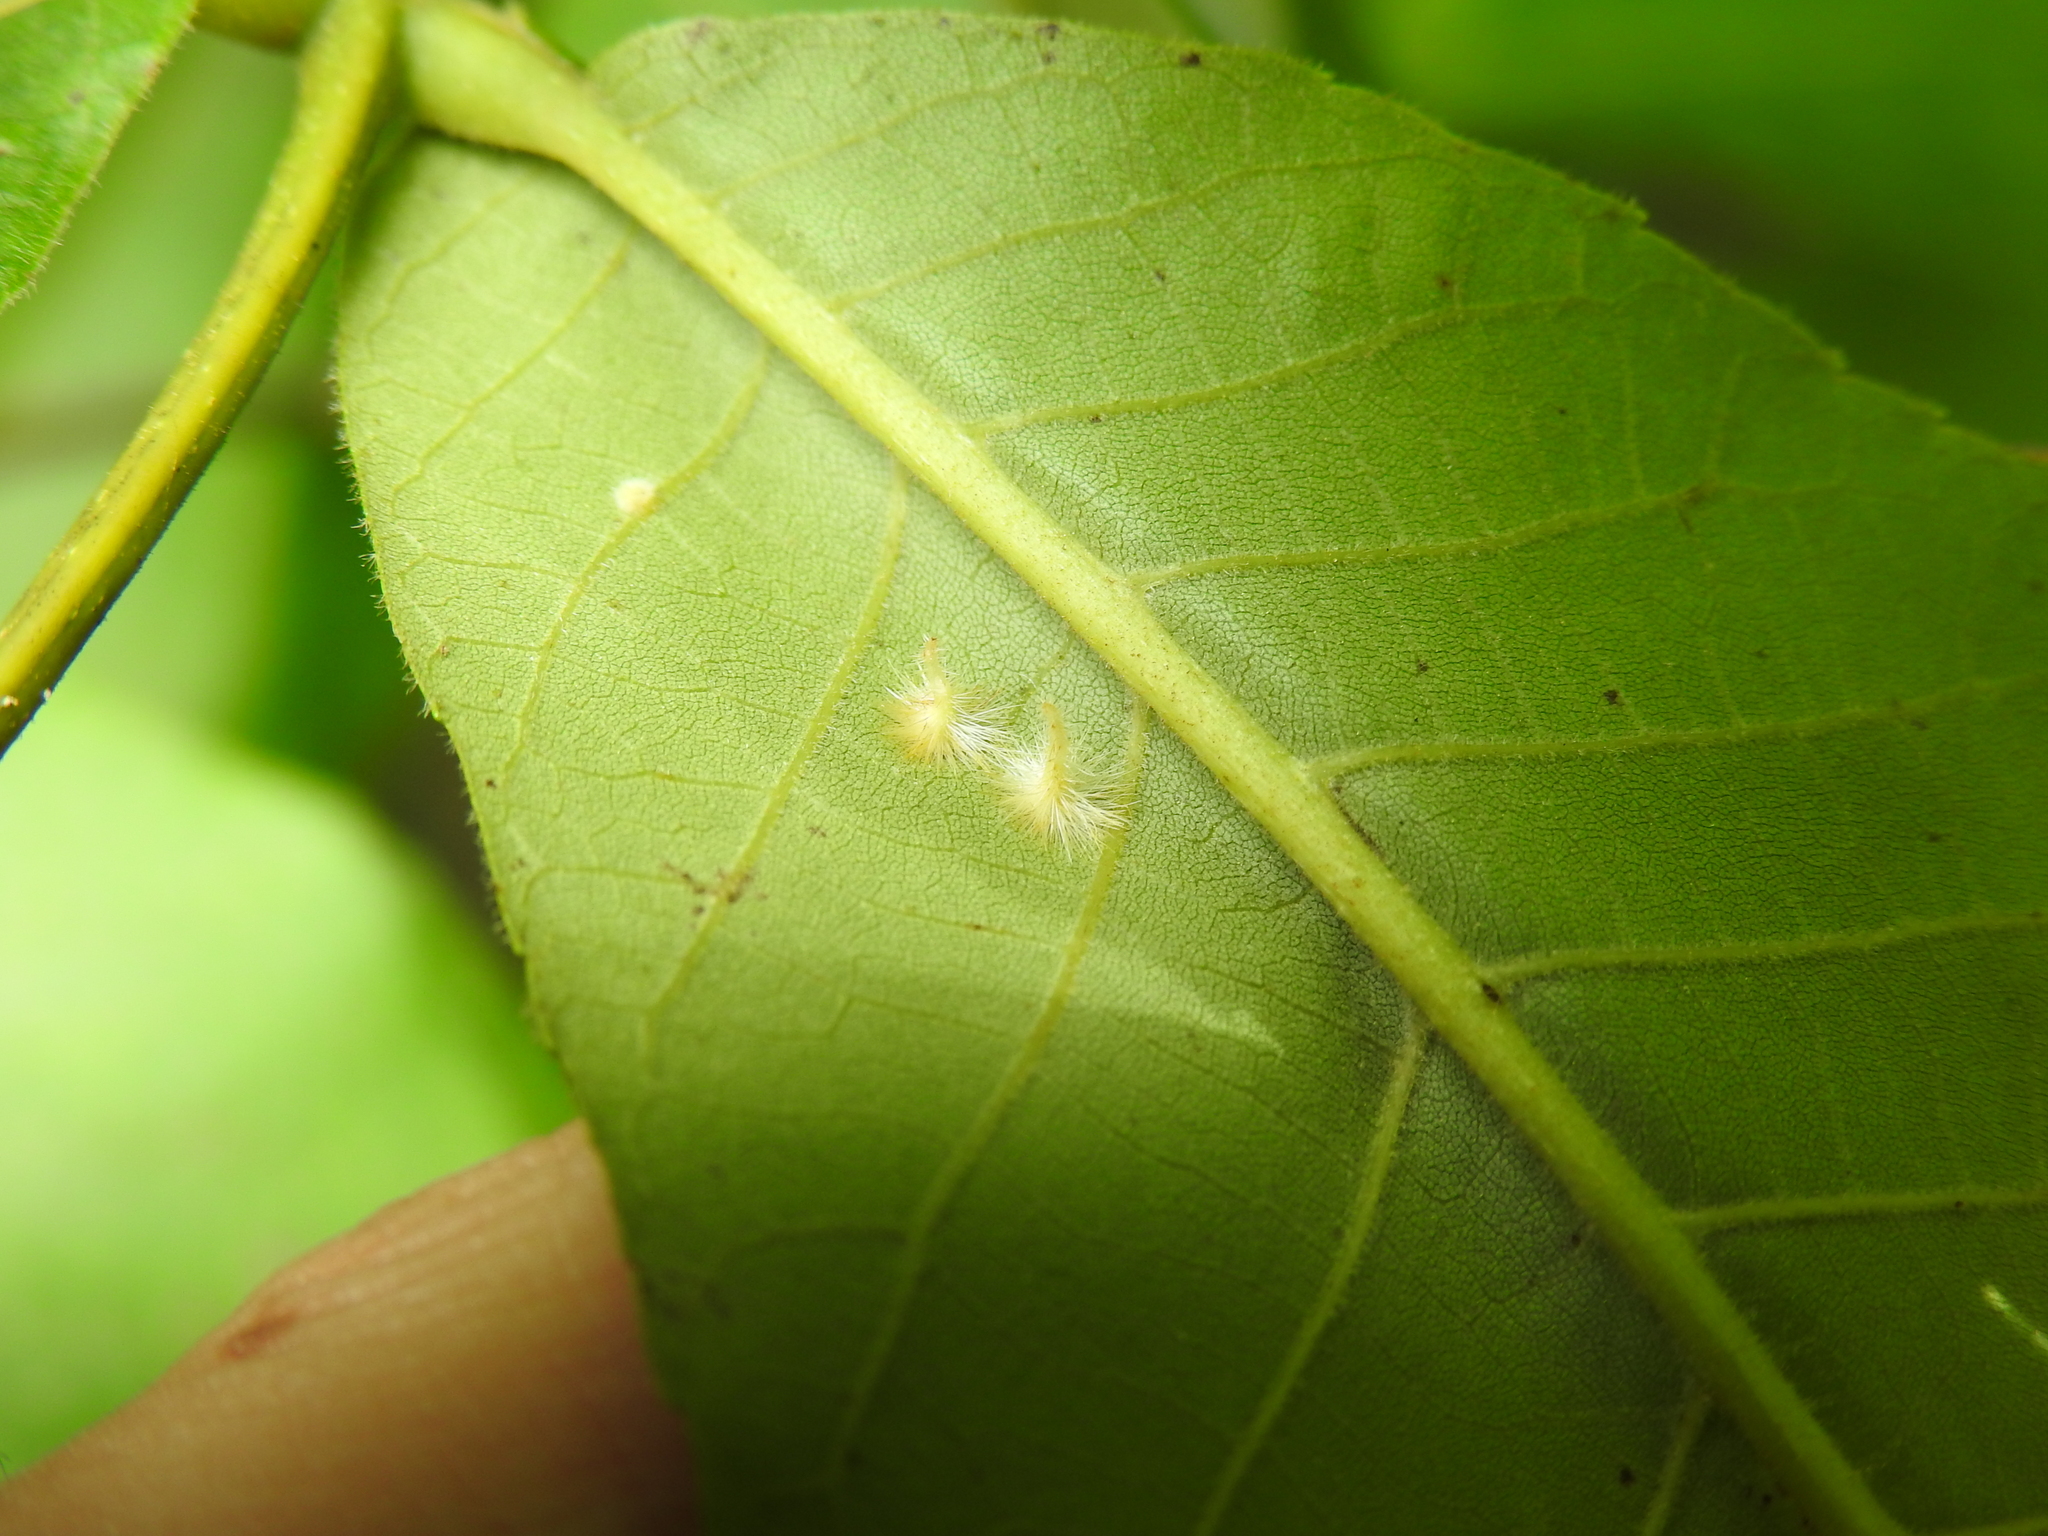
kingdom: Animalia
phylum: Arthropoda
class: Insecta
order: Diptera
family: Cecidomyiidae
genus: Caryomyia
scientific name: Caryomyia echinata
